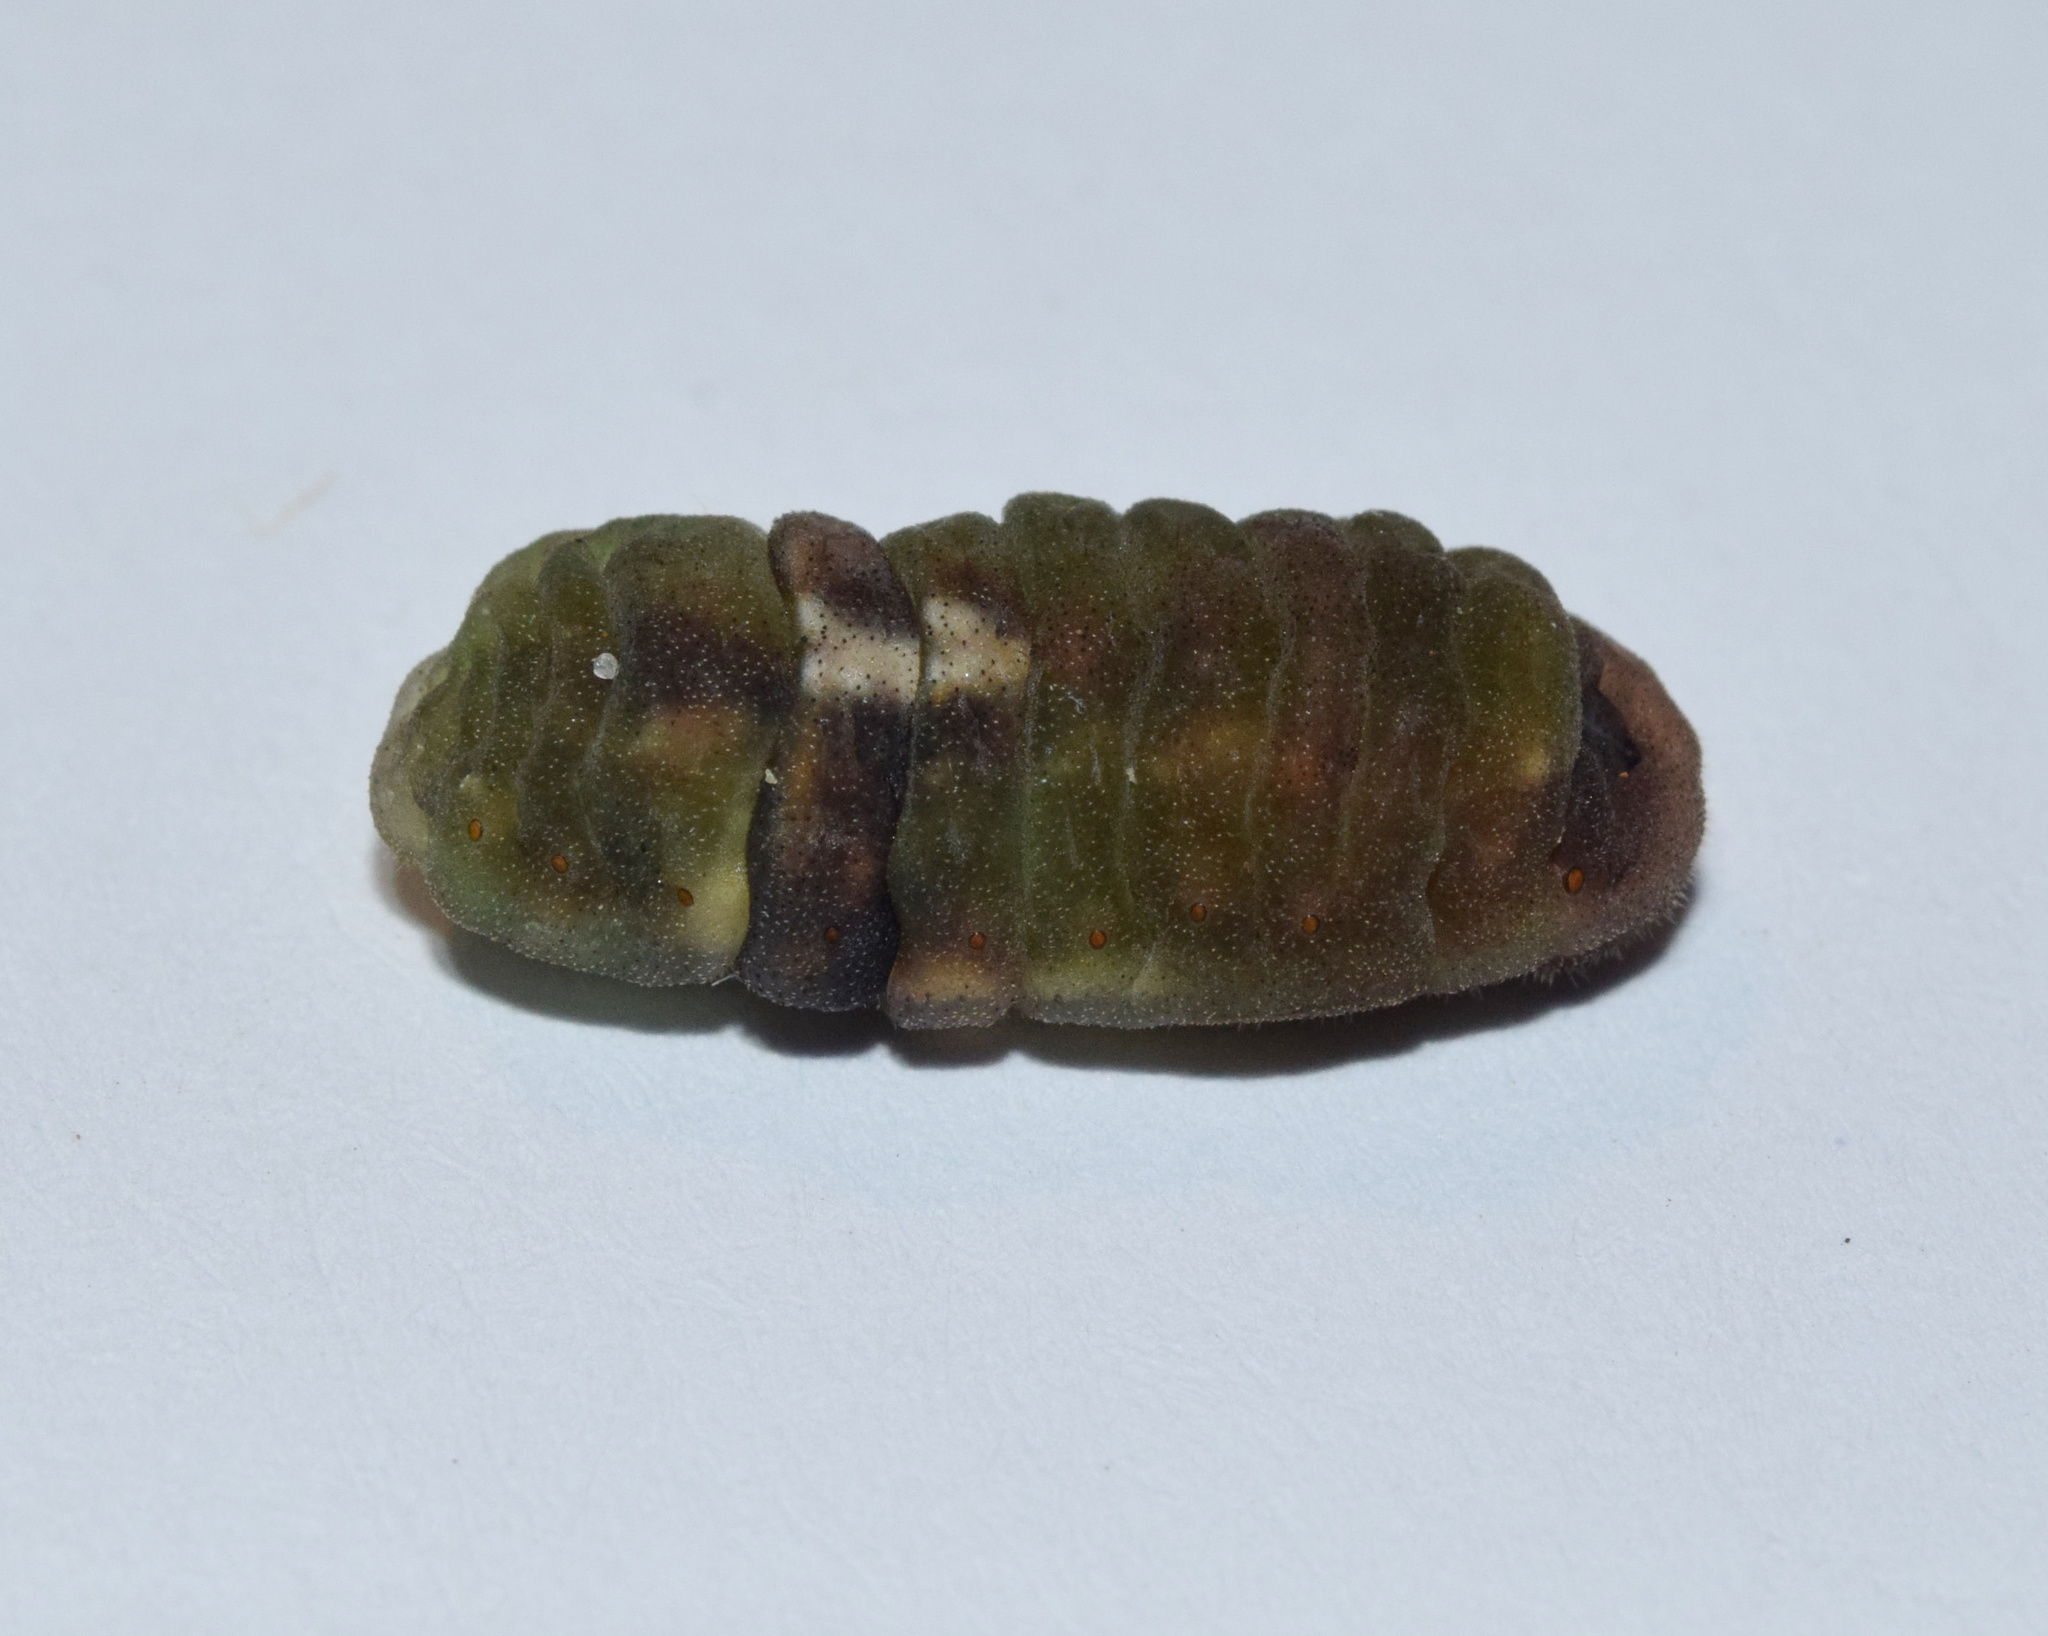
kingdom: Animalia
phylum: Arthropoda
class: Insecta
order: Lepidoptera
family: Lycaenidae
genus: Myrina
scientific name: Myrina silenus
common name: Amber fig-tree blue
